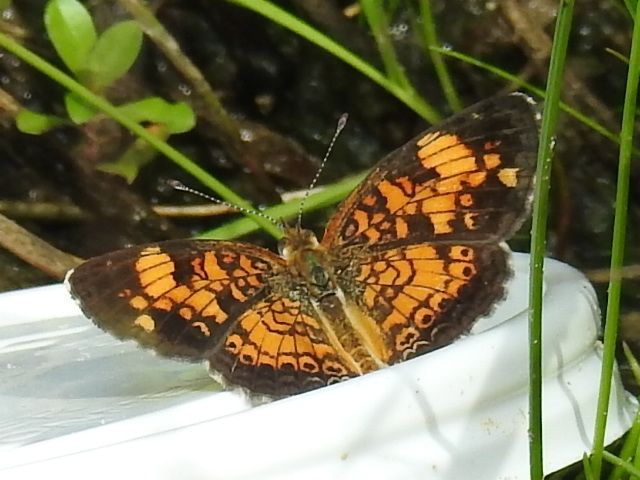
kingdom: Animalia
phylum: Arthropoda
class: Insecta
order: Lepidoptera
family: Nymphalidae
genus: Phyciodes
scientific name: Phyciodes tharos
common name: Pearl crescent
